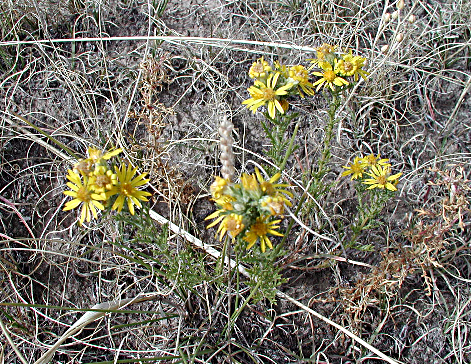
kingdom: Plantae
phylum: Tracheophyta
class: Magnoliopsida
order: Asterales
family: Asteraceae
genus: Xanthisma
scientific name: Xanthisma spinulosum
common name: Spiny goldenweed
